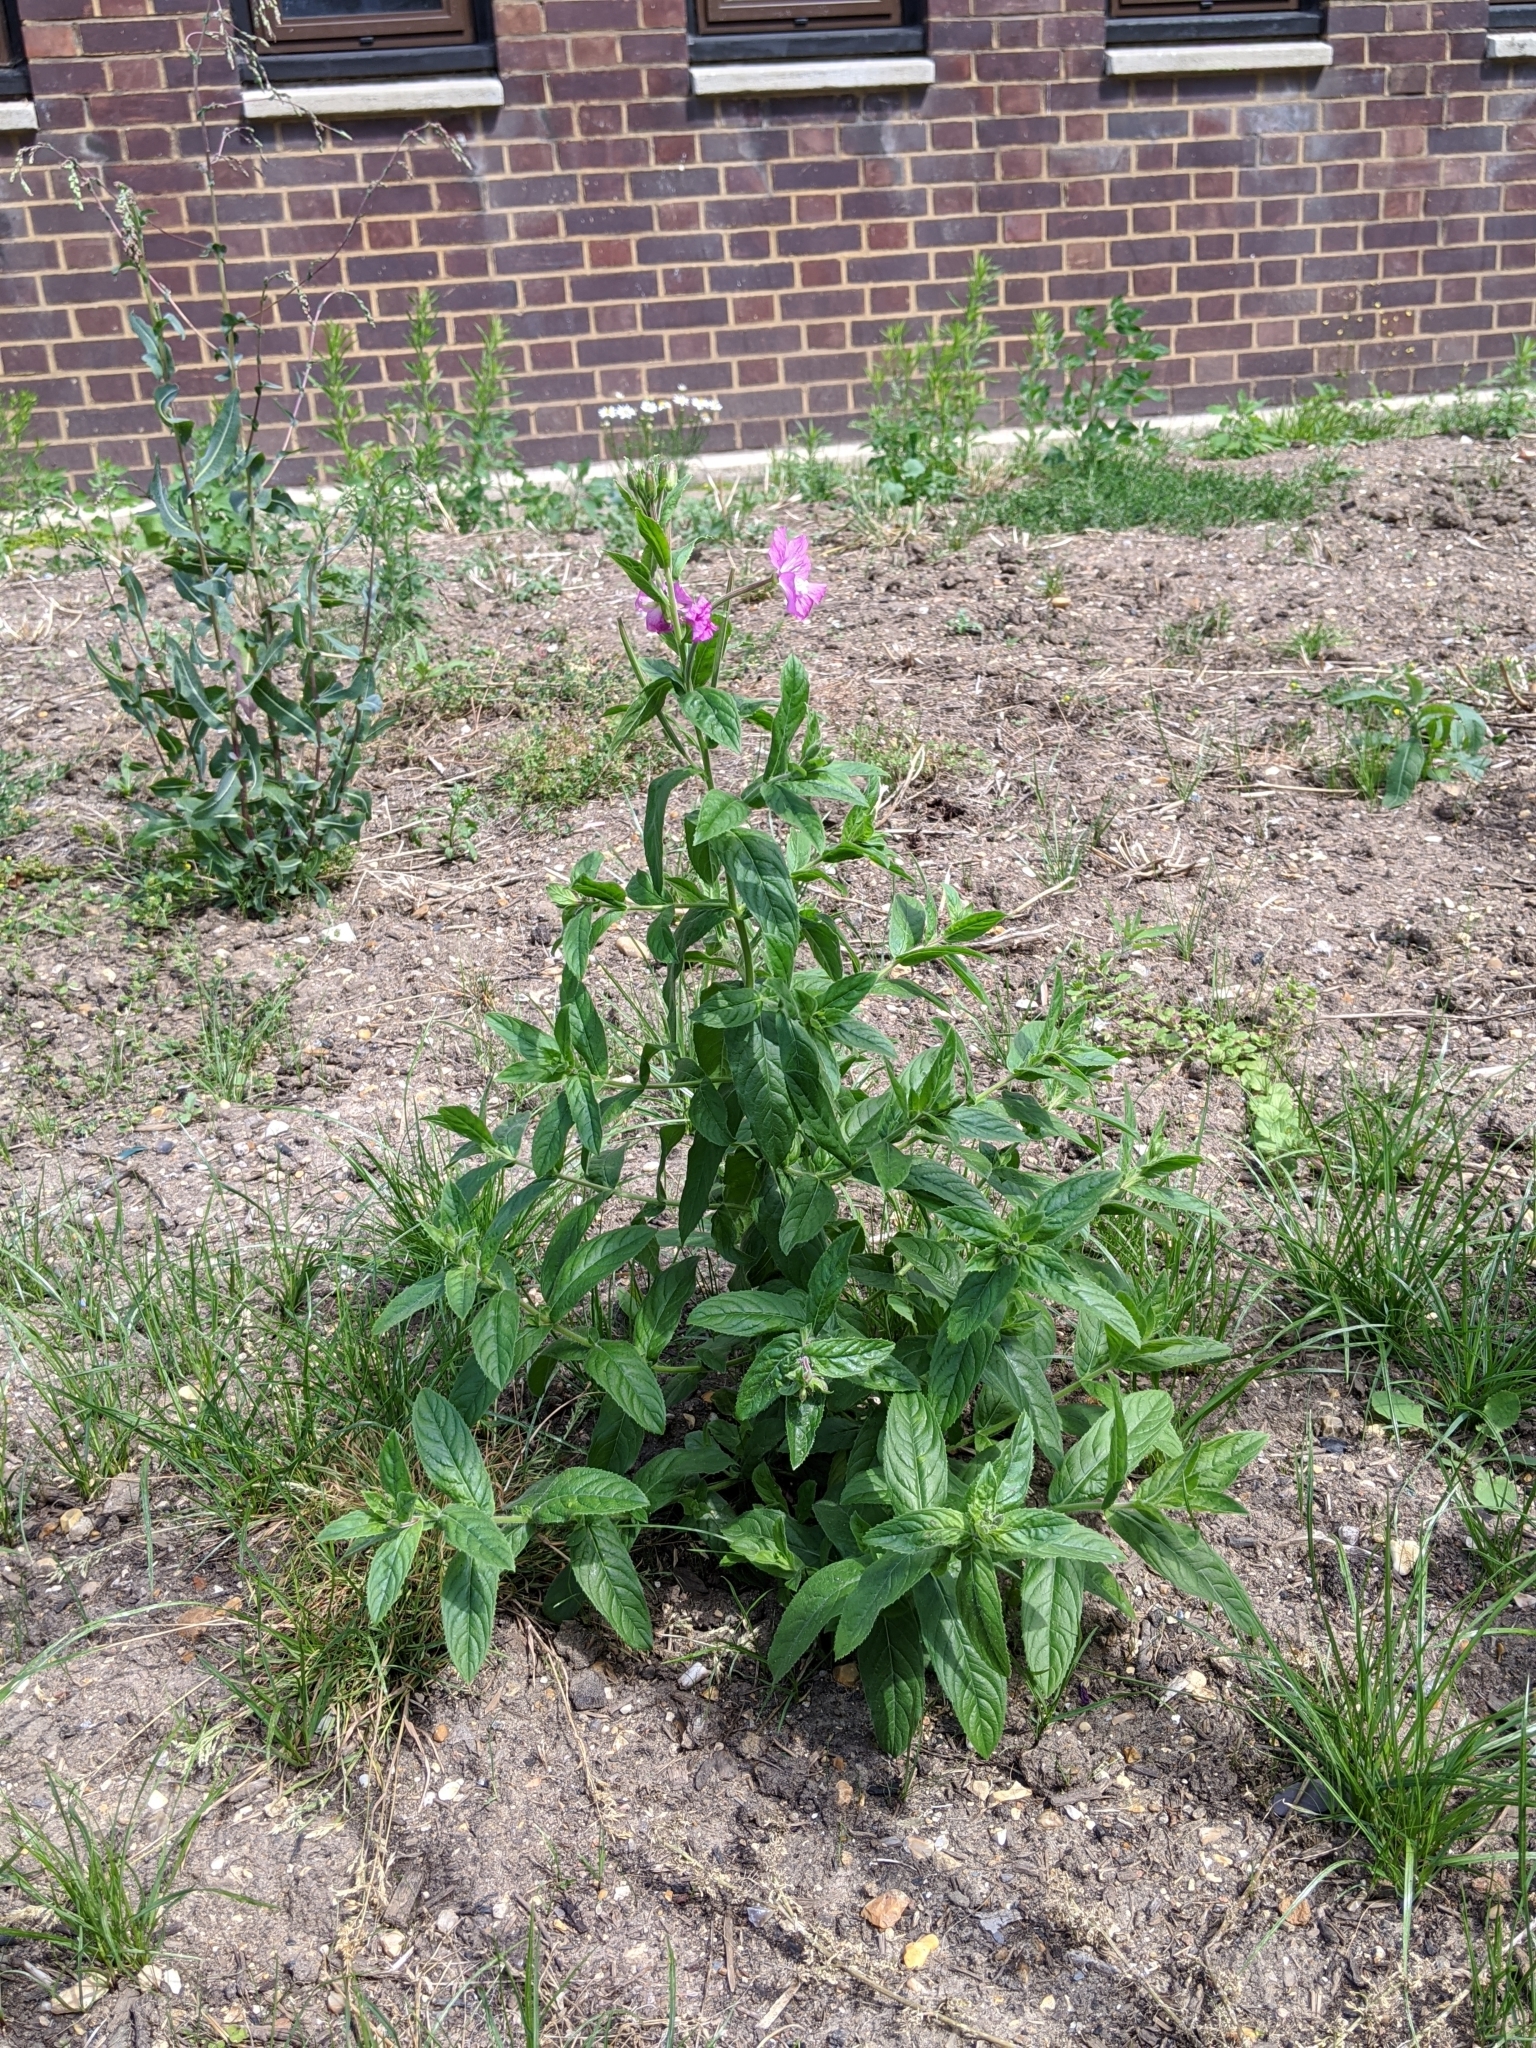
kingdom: Plantae
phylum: Tracheophyta
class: Magnoliopsida
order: Myrtales
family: Onagraceae
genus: Epilobium
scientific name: Epilobium hirsutum
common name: Great willowherb
